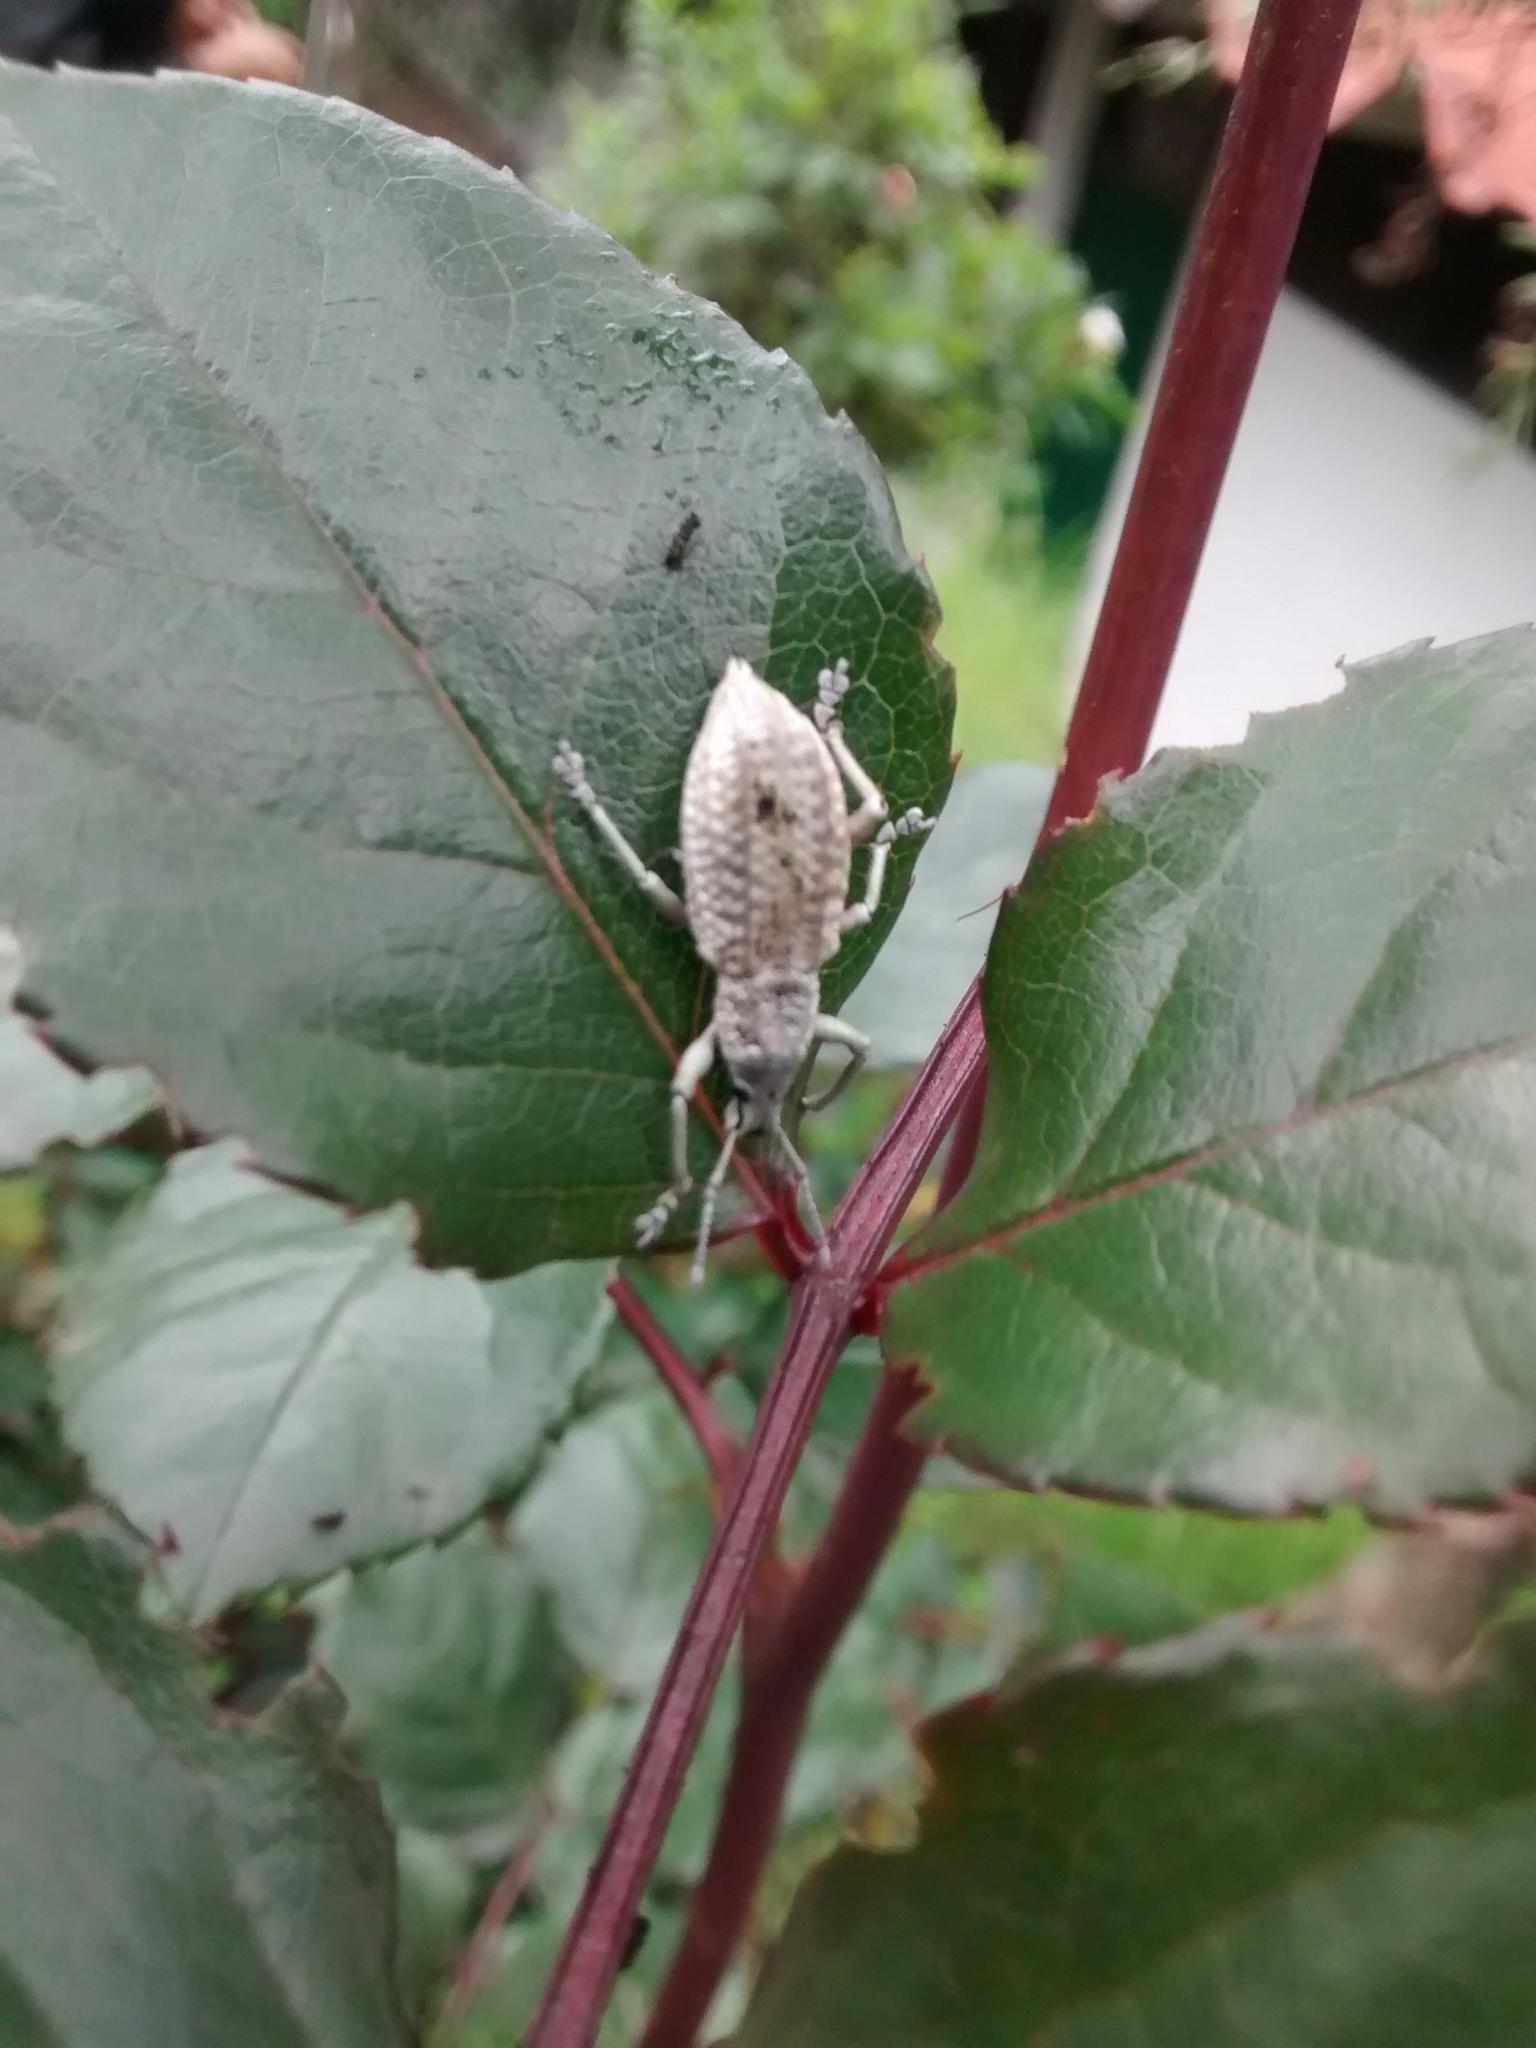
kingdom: Animalia
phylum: Arthropoda
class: Insecta
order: Coleoptera
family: Curculionidae
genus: Compsus
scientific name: Compsus canescens
